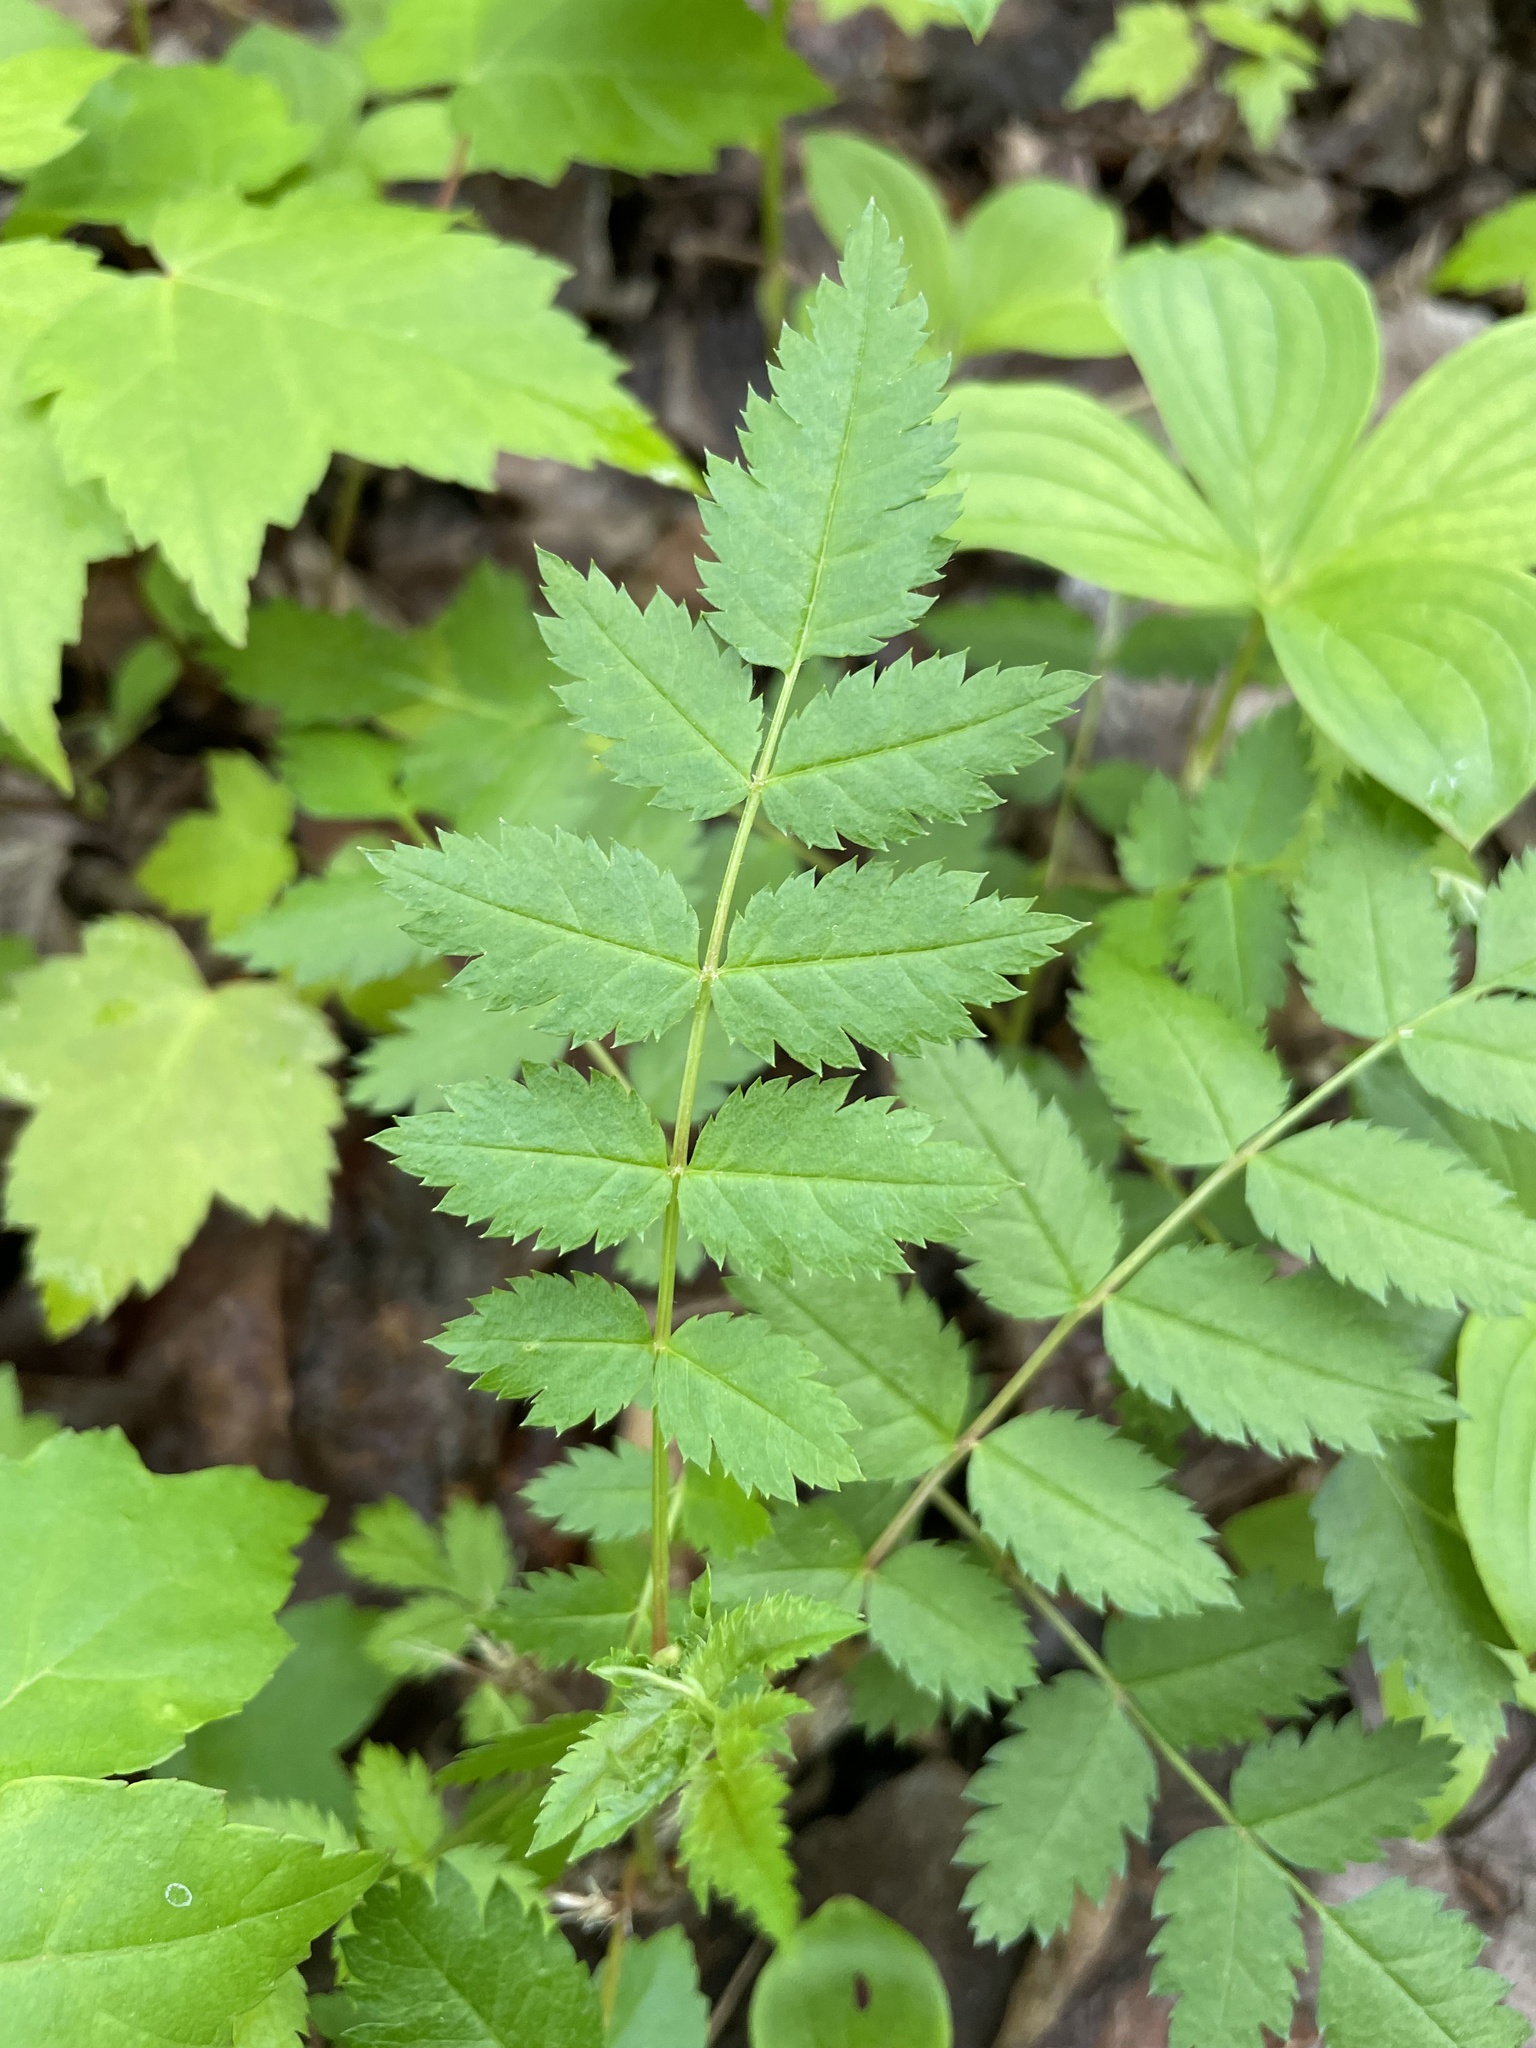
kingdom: Plantae
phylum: Tracheophyta
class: Magnoliopsida
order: Rosales
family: Rosaceae
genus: Sorbus
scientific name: Sorbus decora
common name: Northern mountain-ash
